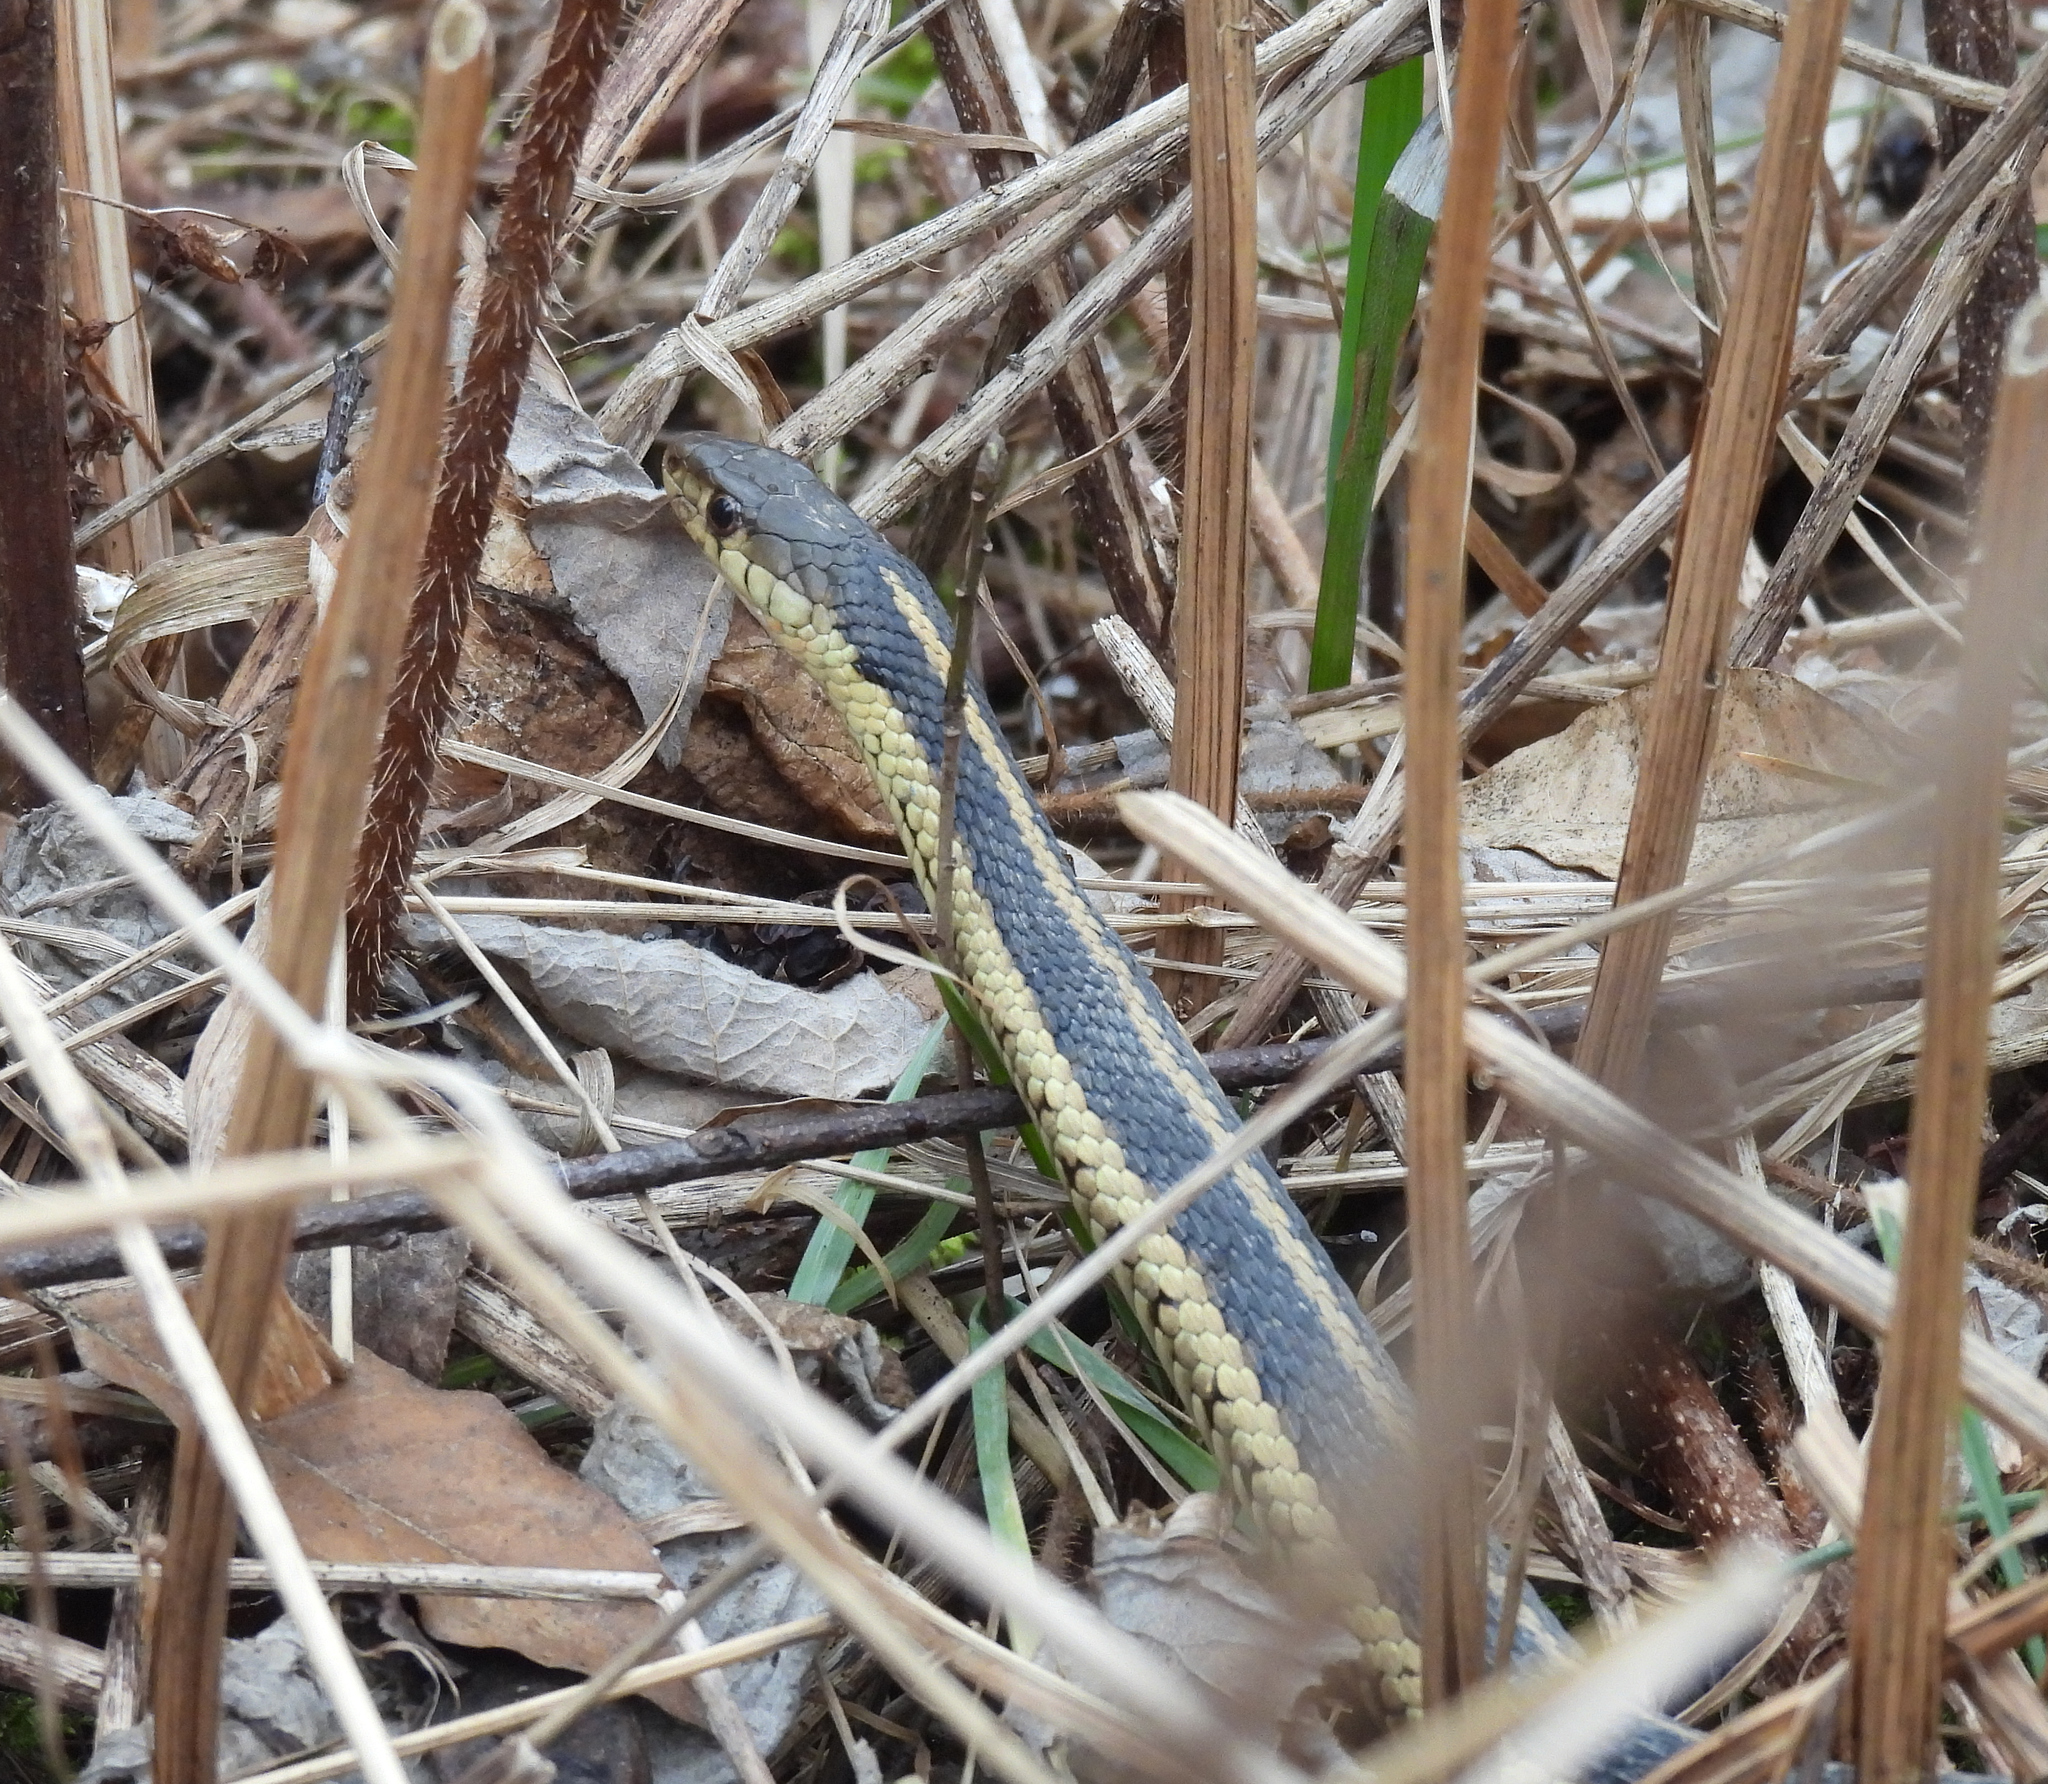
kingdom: Animalia
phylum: Chordata
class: Squamata
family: Colubridae
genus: Thamnophis
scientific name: Thamnophis sirtalis
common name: Common garter snake
